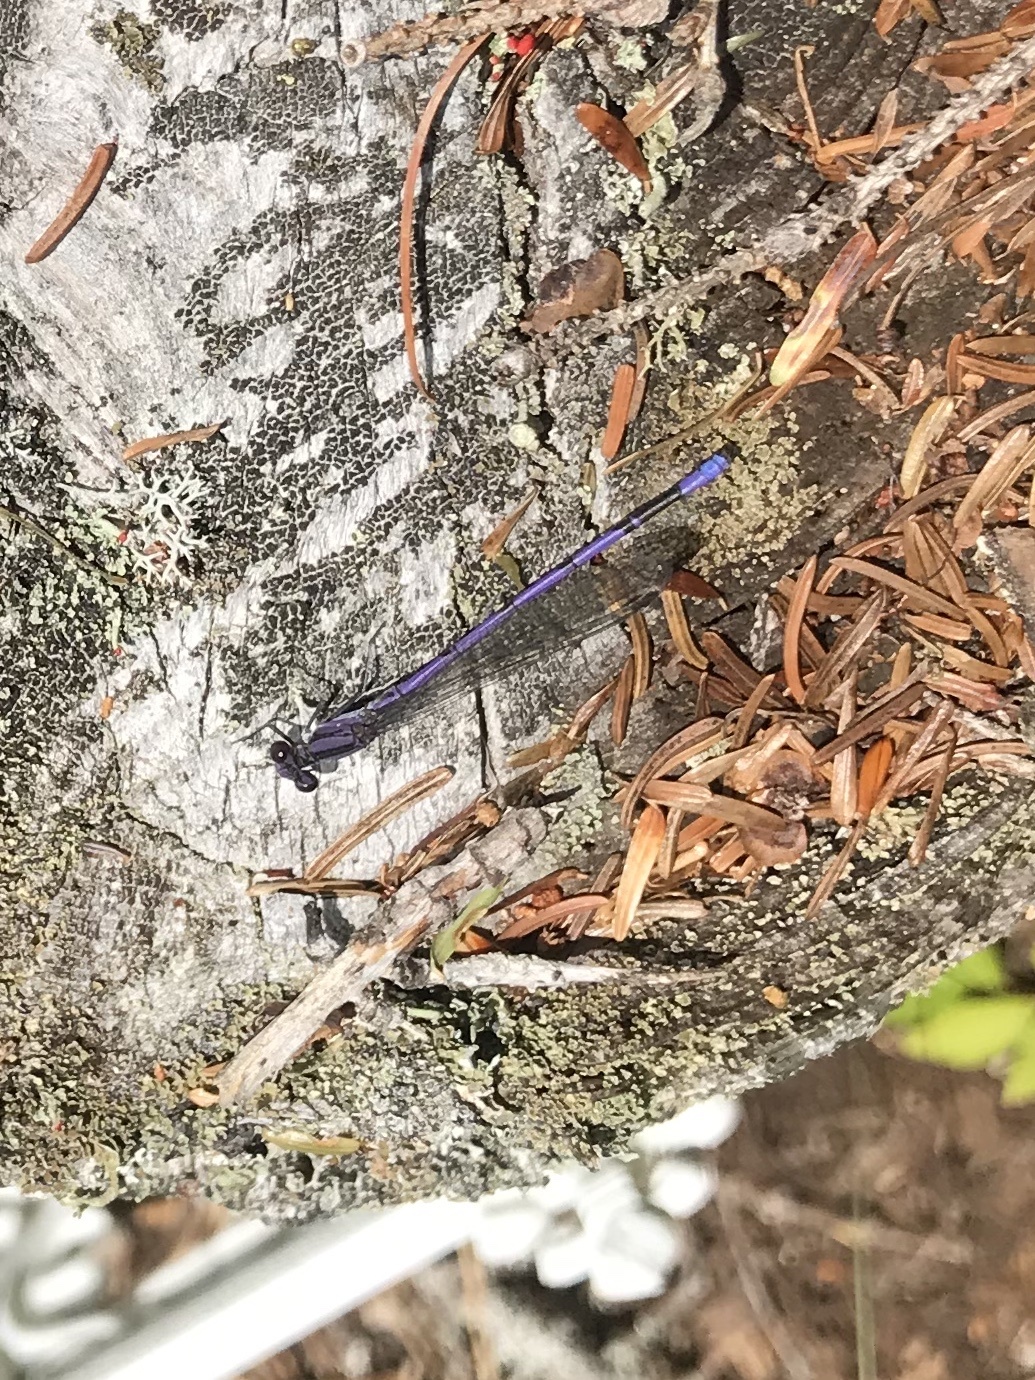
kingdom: Animalia
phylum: Arthropoda
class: Insecta
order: Odonata
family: Coenagrionidae
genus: Argia
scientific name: Argia fumipennis
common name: Variable dancer
